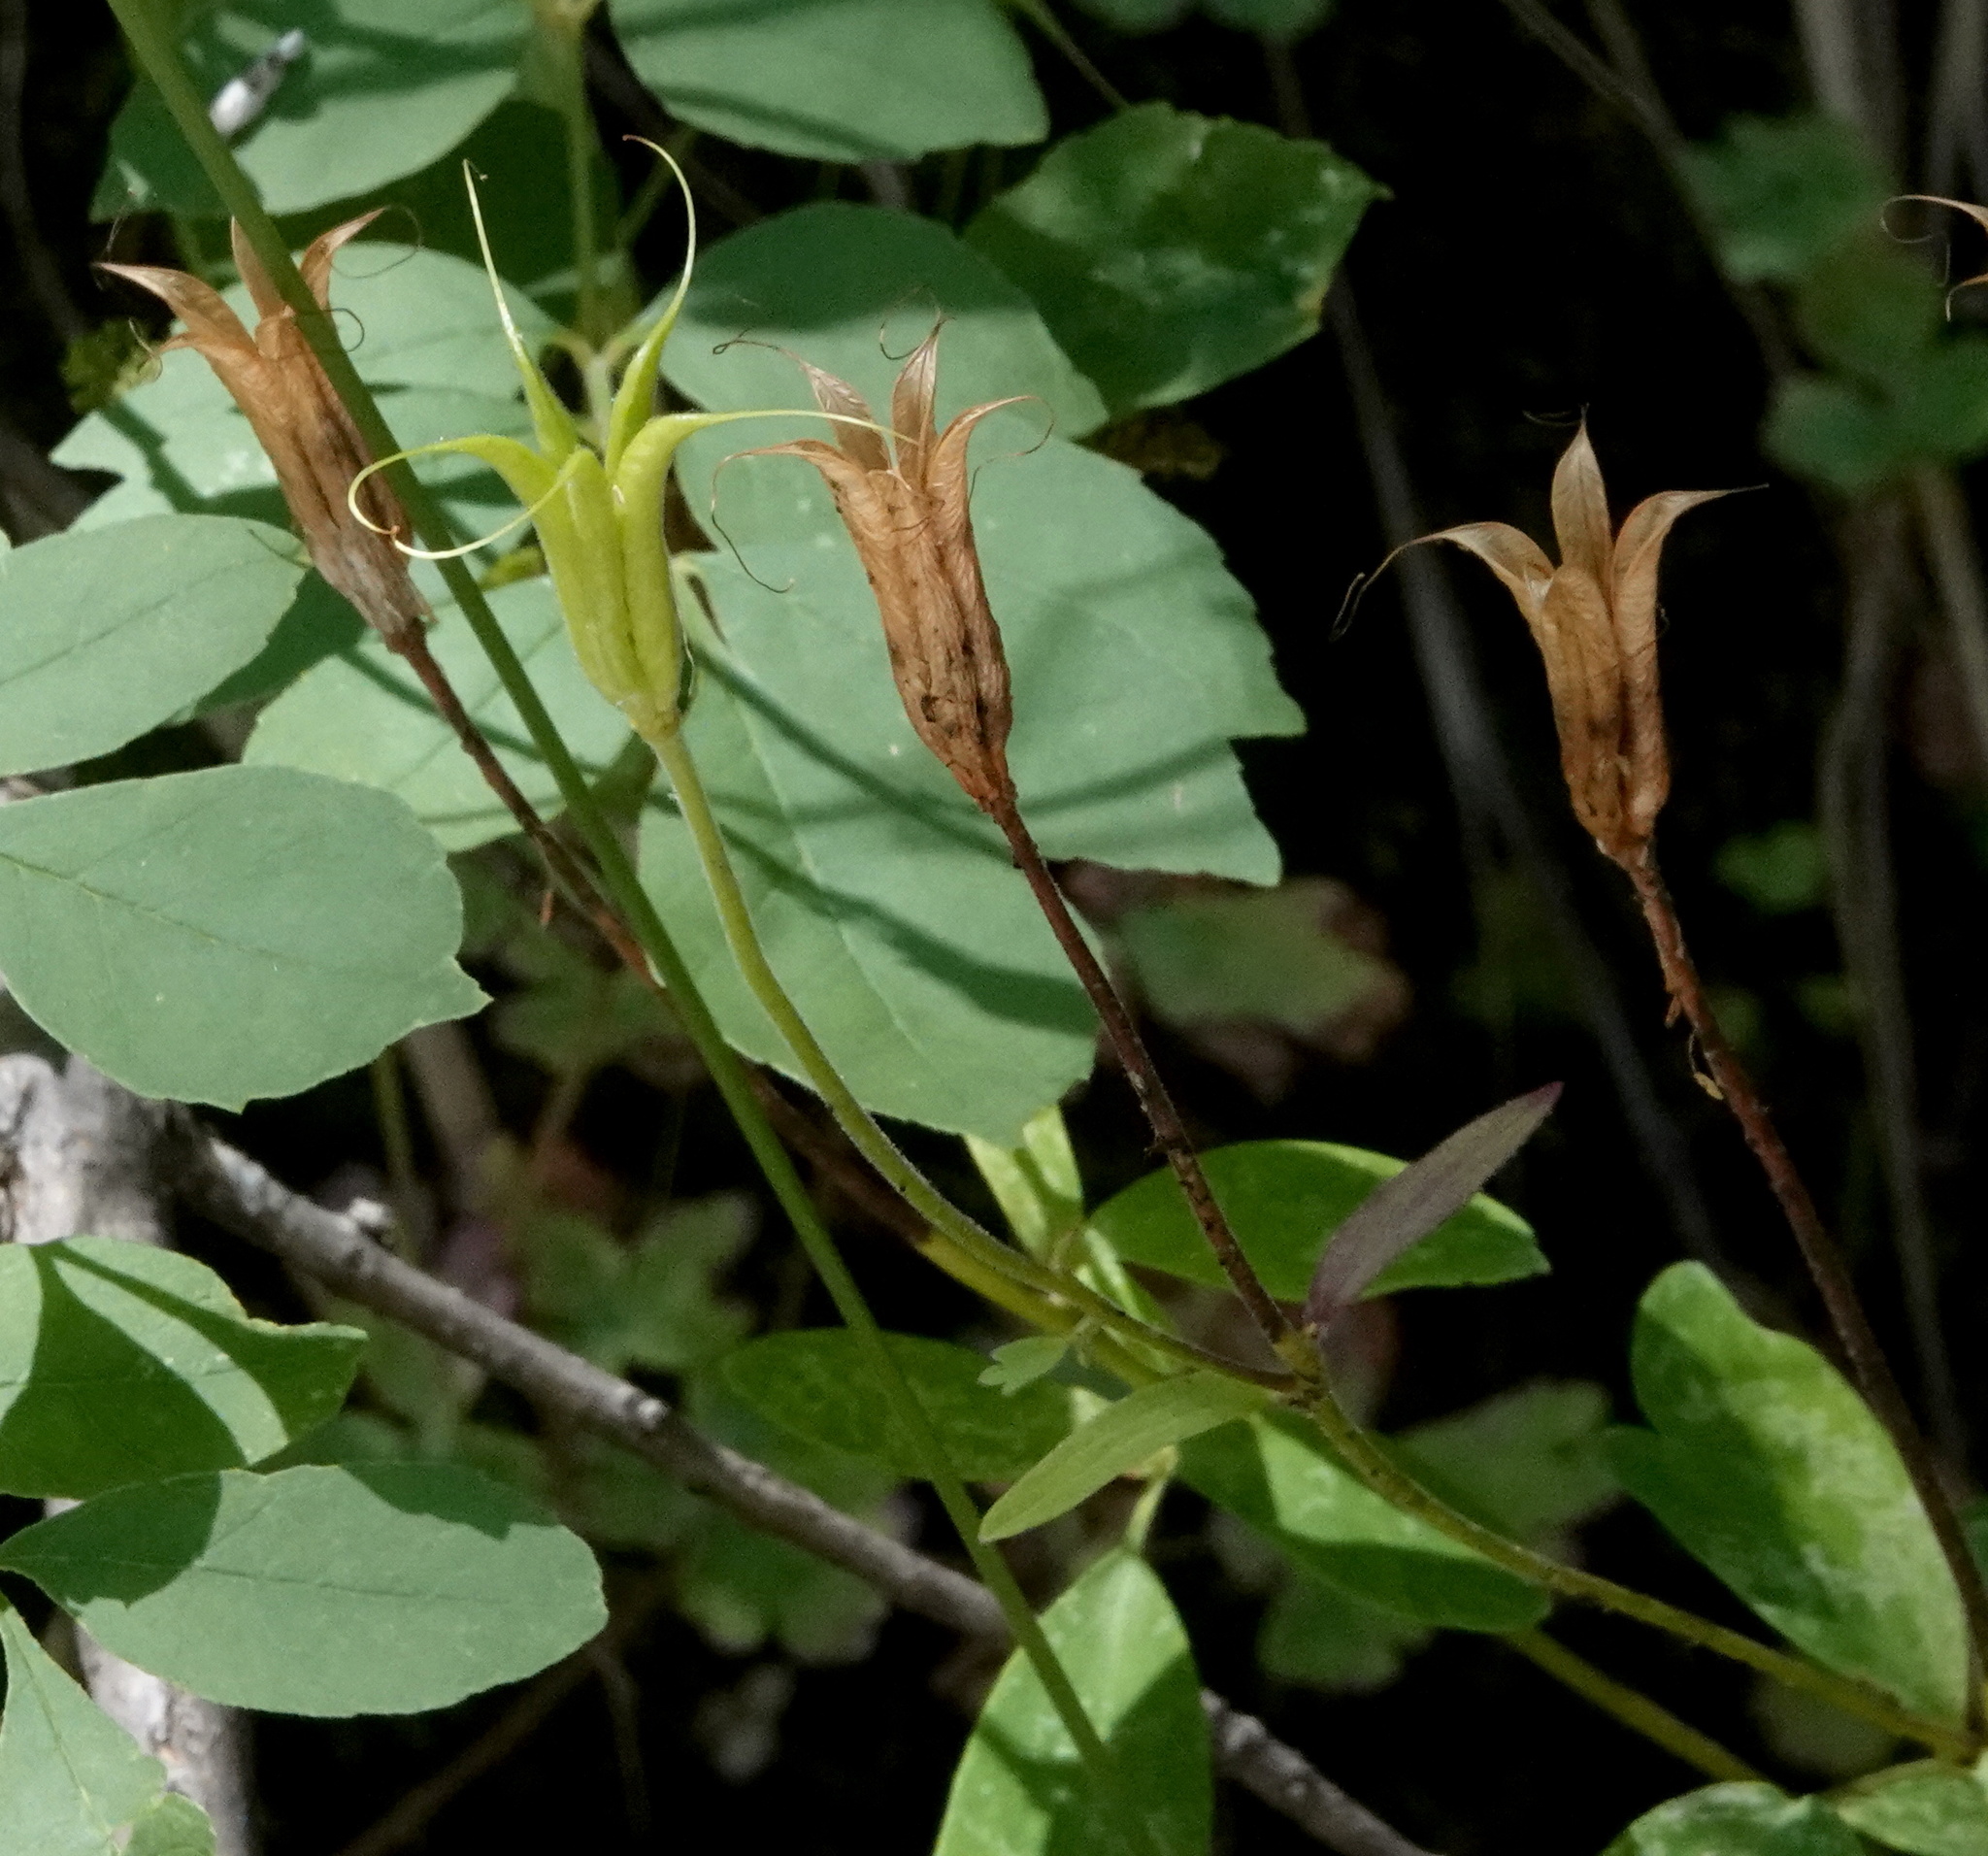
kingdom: Plantae
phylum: Tracheophyta
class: Magnoliopsida
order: Ranunculales
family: Ranunculaceae
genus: Aquilegia
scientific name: Aquilegia chrysantha
